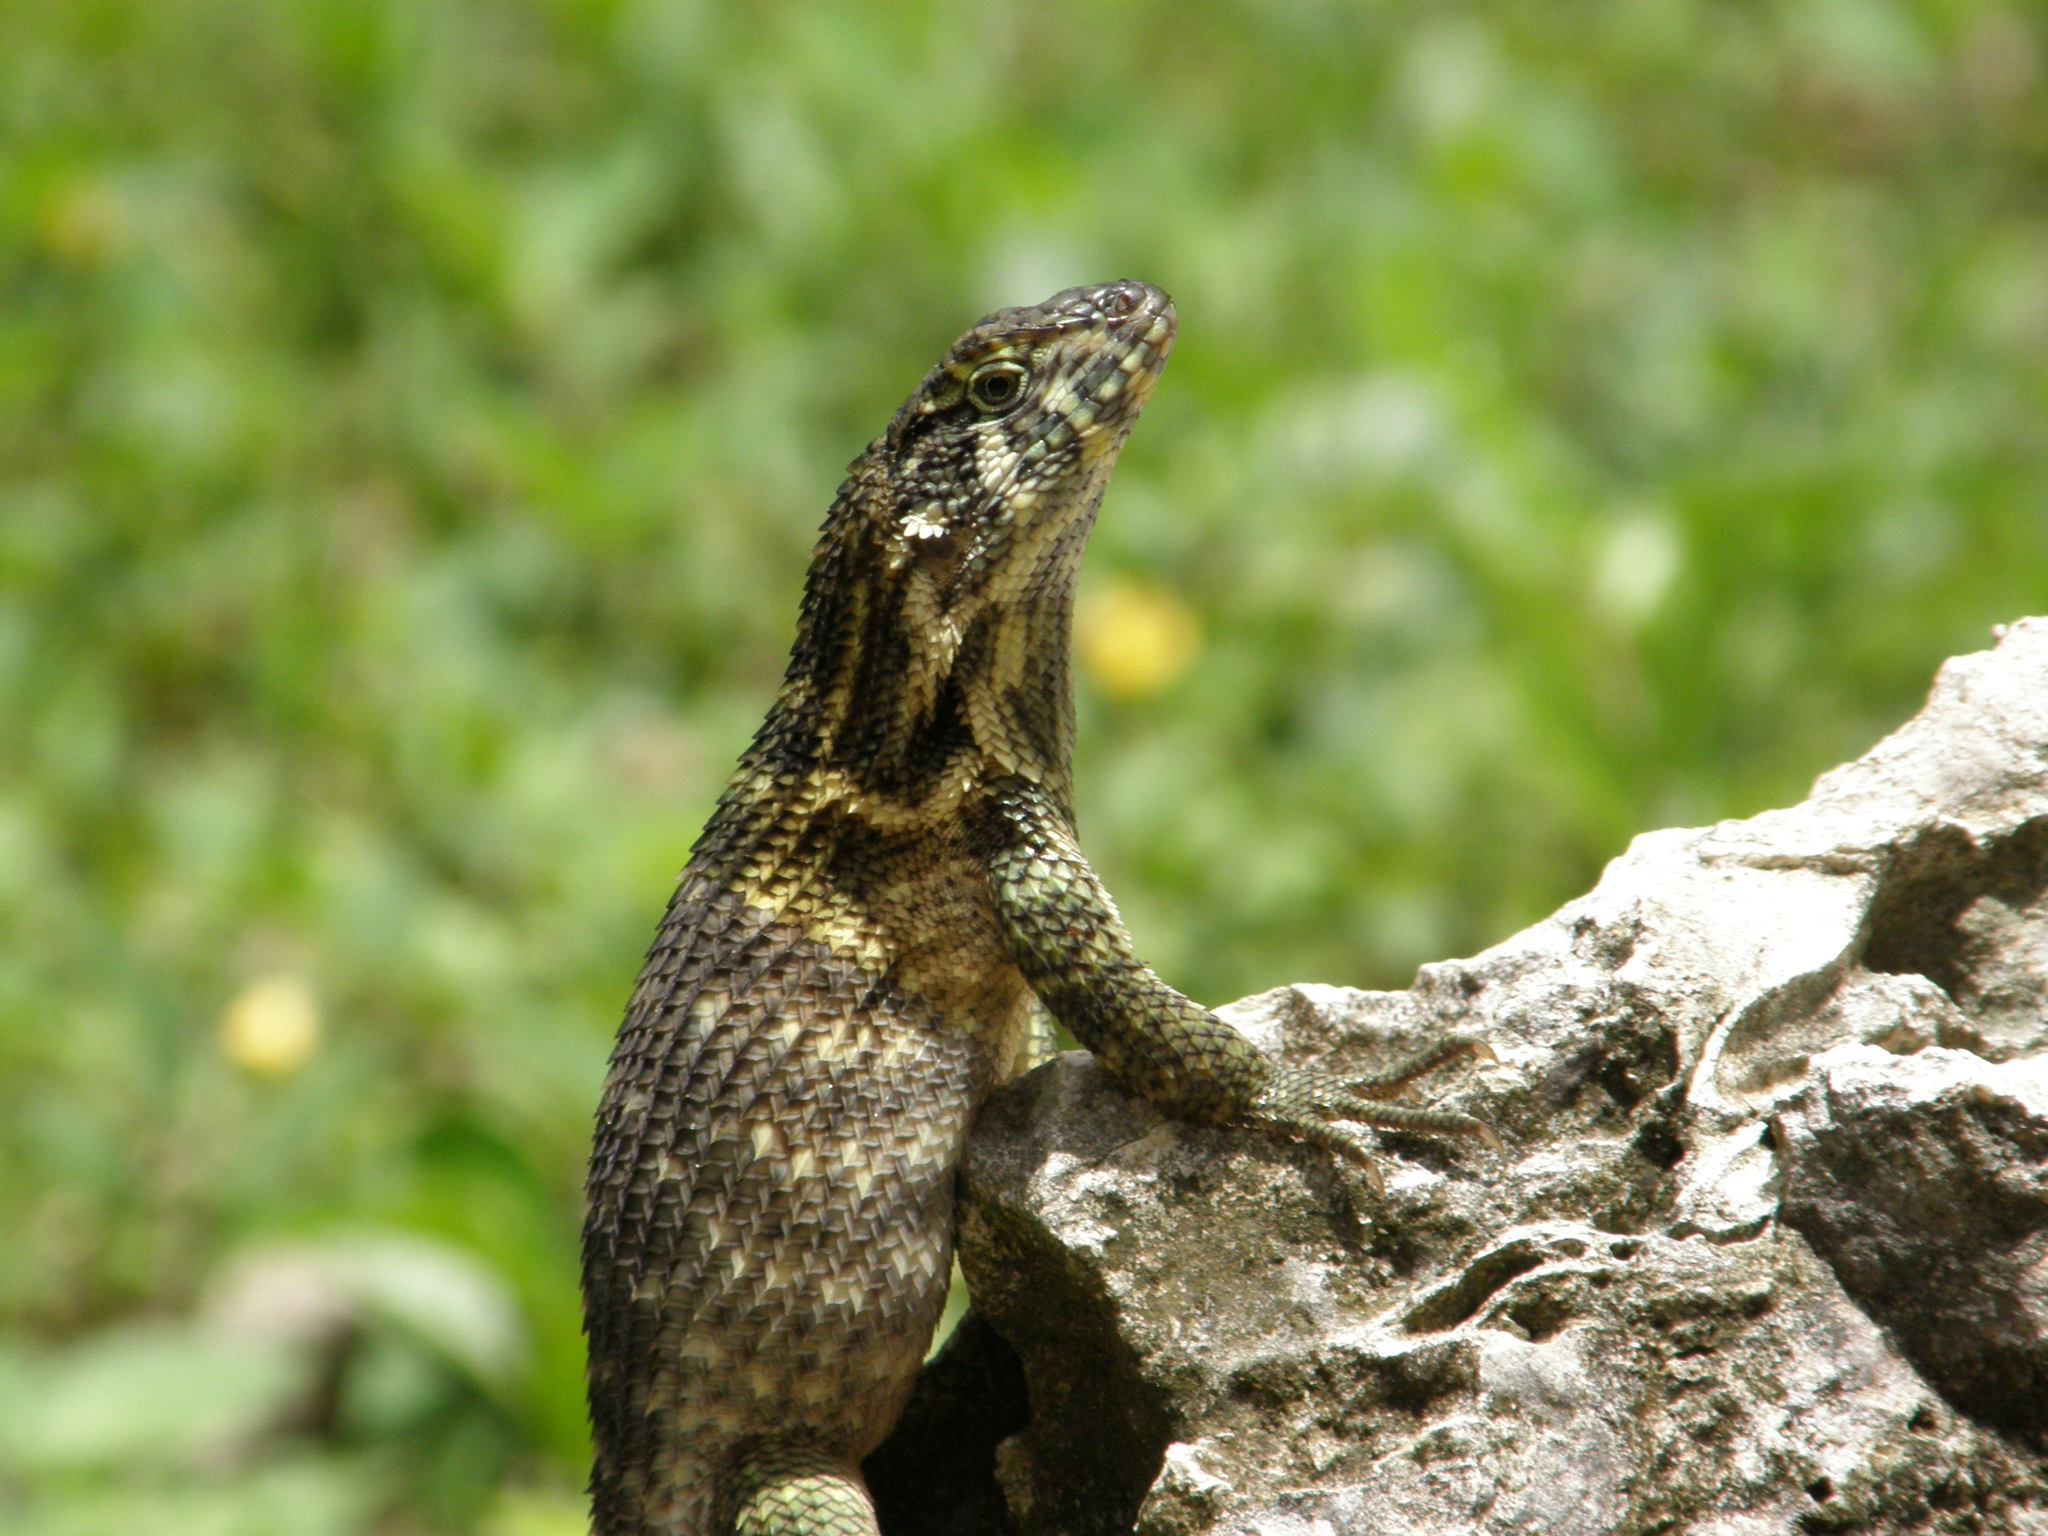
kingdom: Animalia
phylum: Chordata
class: Squamata
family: Leiocephalidae
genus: Leiocephalus
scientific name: Leiocephalus carinatus
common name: Northern curly-tailed lizard
